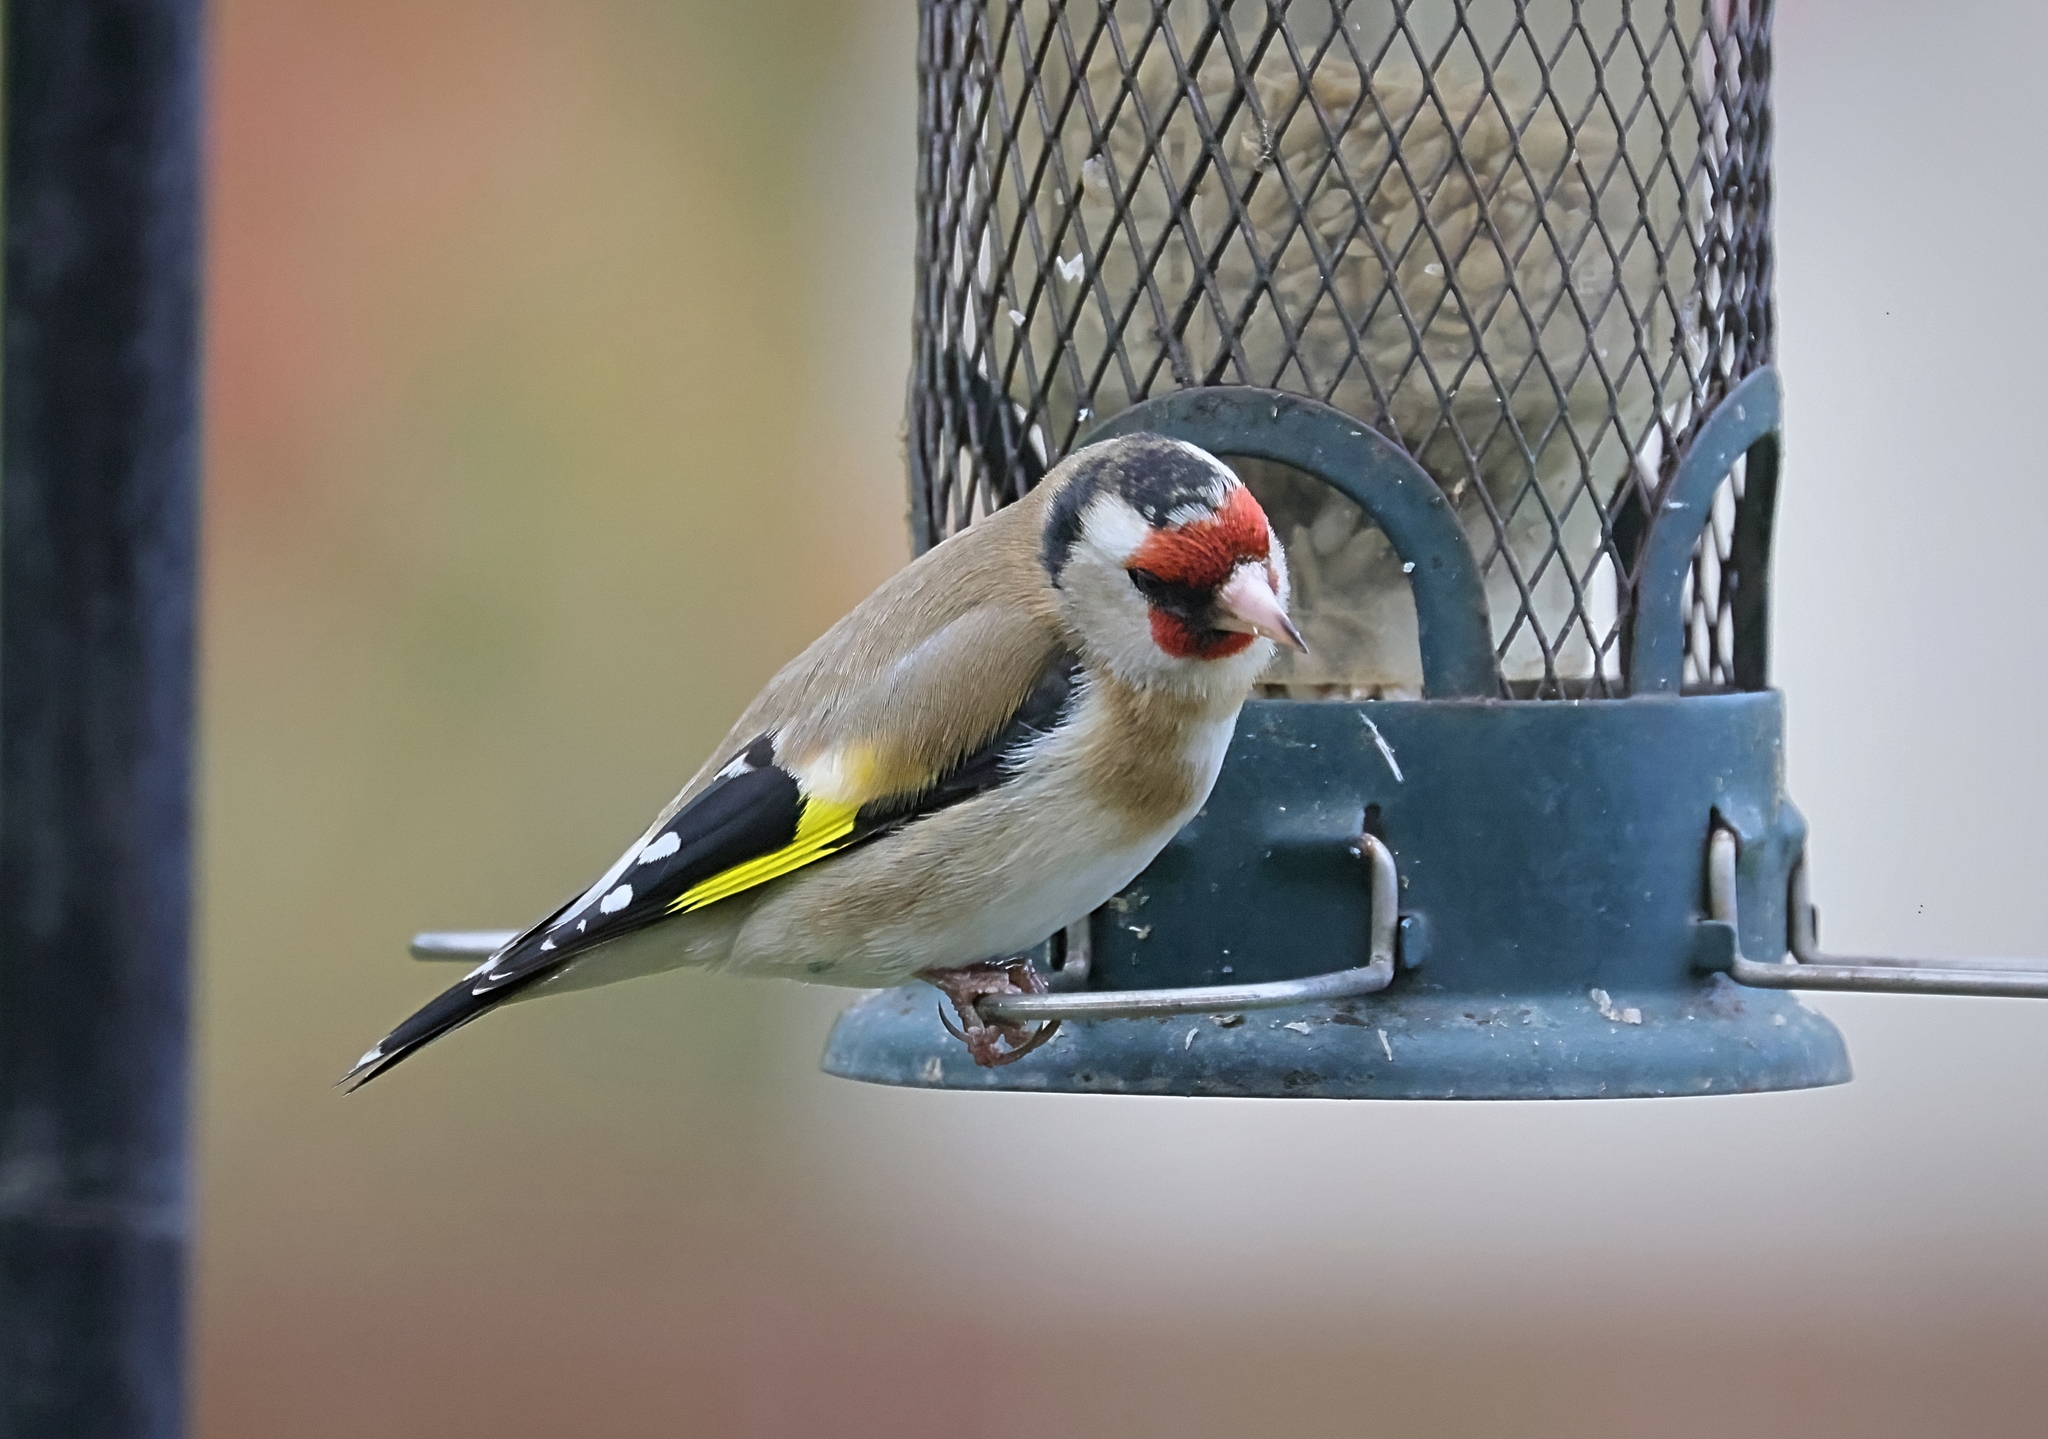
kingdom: Animalia
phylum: Chordata
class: Aves
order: Passeriformes
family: Fringillidae
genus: Carduelis
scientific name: Carduelis carduelis
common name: European goldfinch
